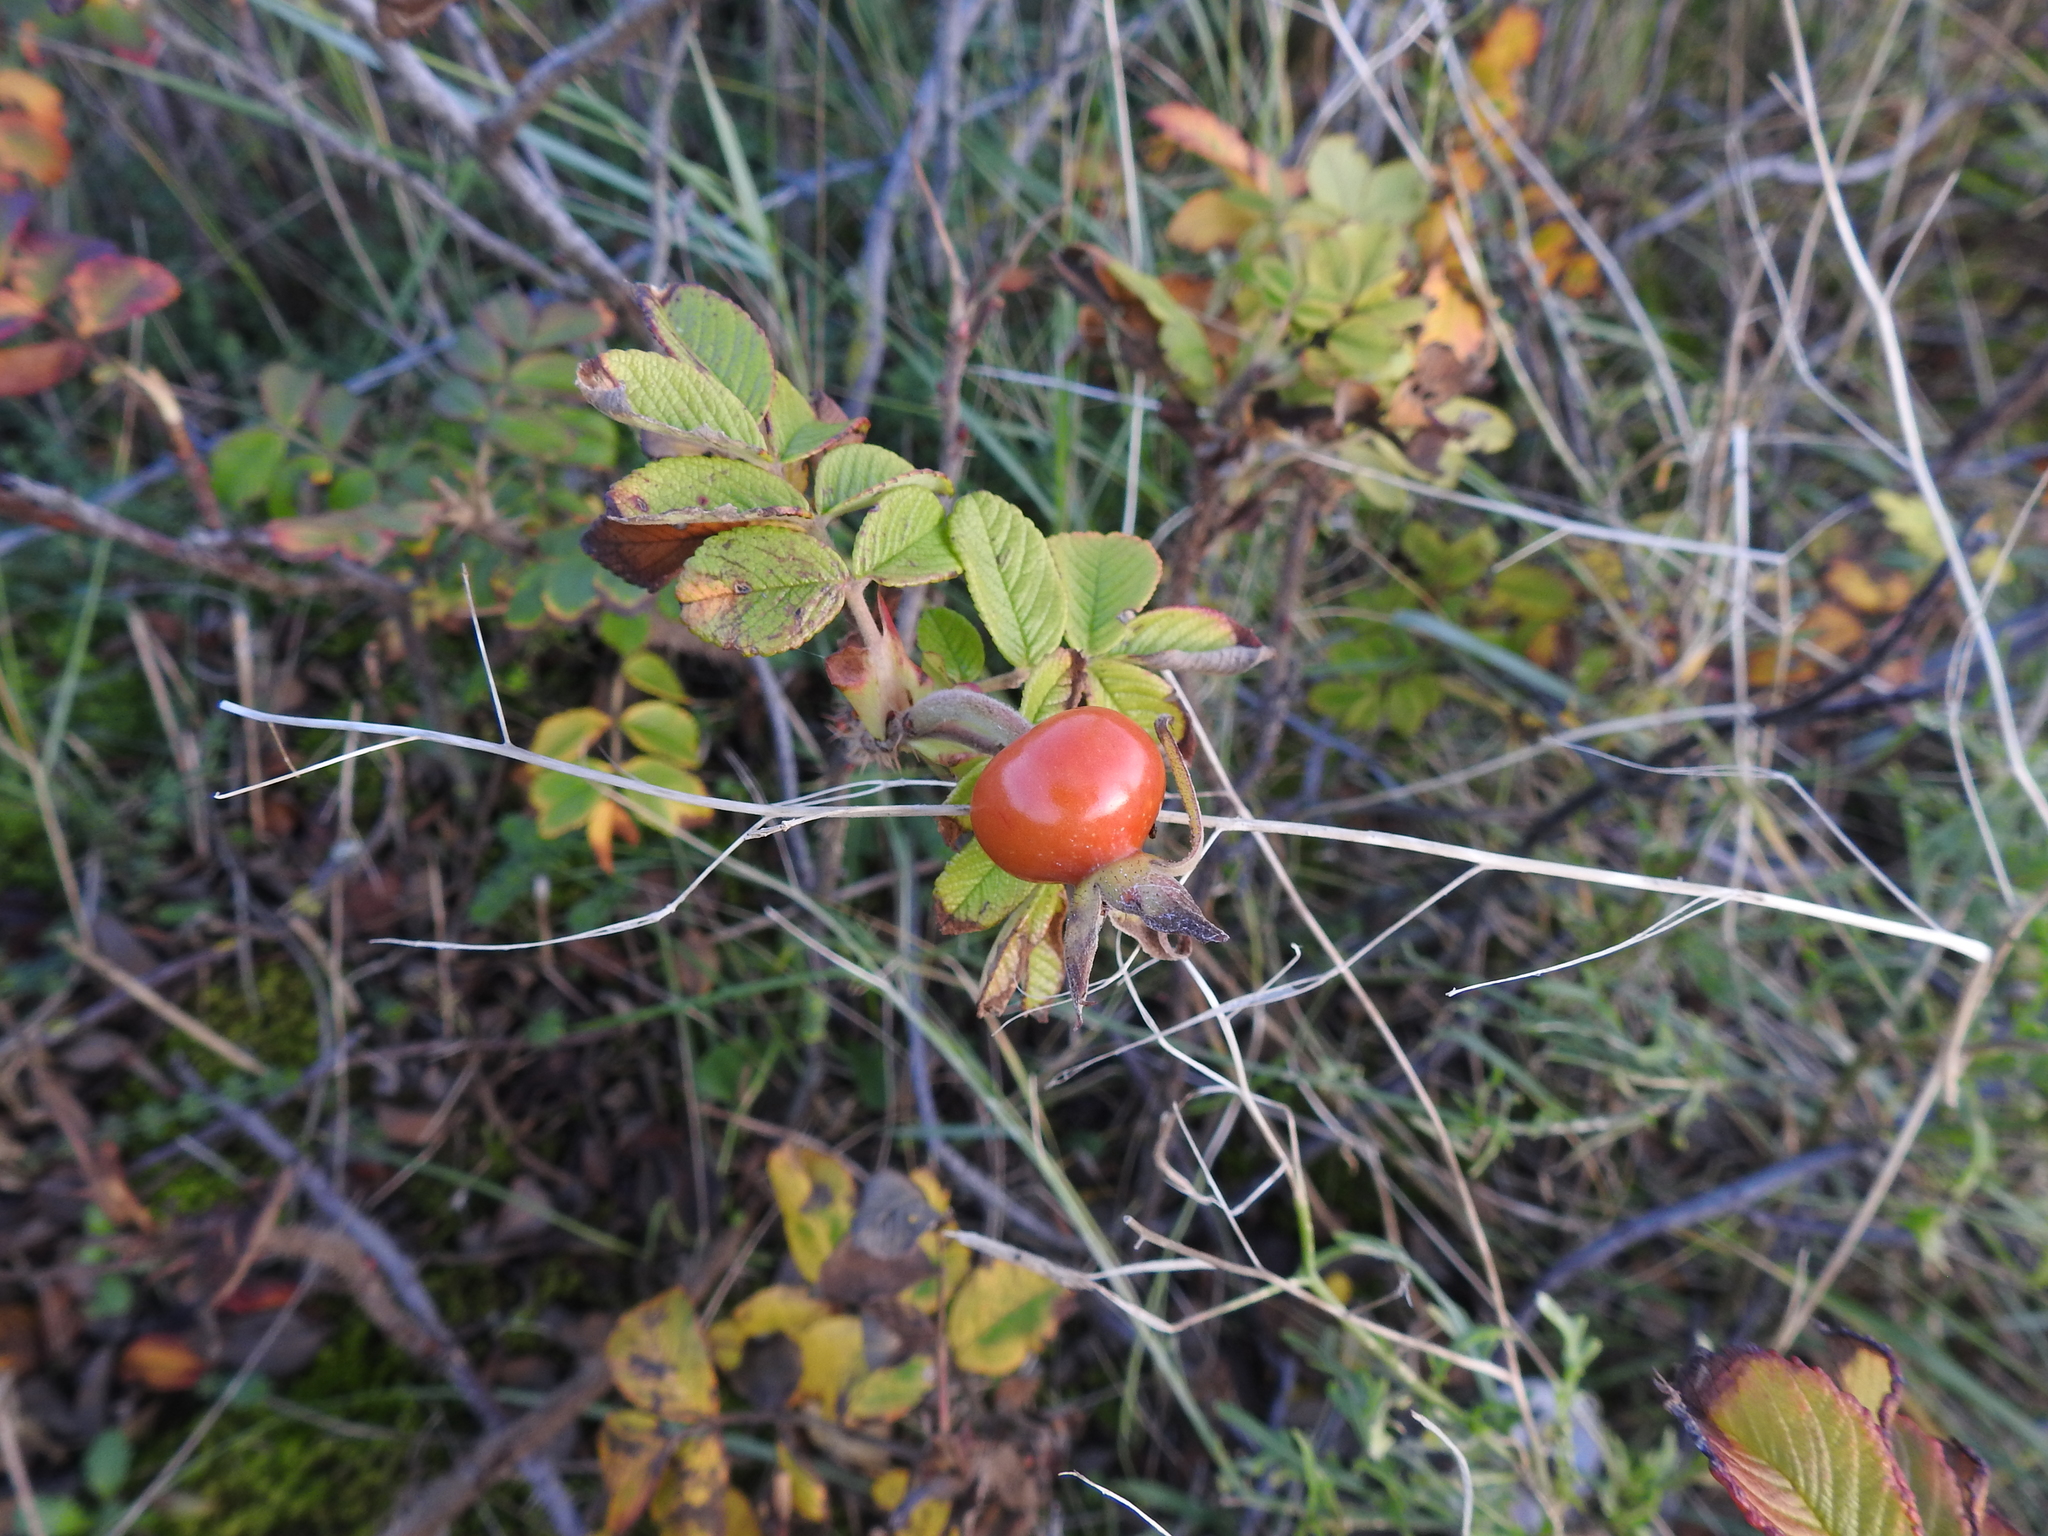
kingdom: Plantae
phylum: Tracheophyta
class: Magnoliopsida
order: Rosales
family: Rosaceae
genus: Rosa
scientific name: Rosa rugosa
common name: Japanese rose
